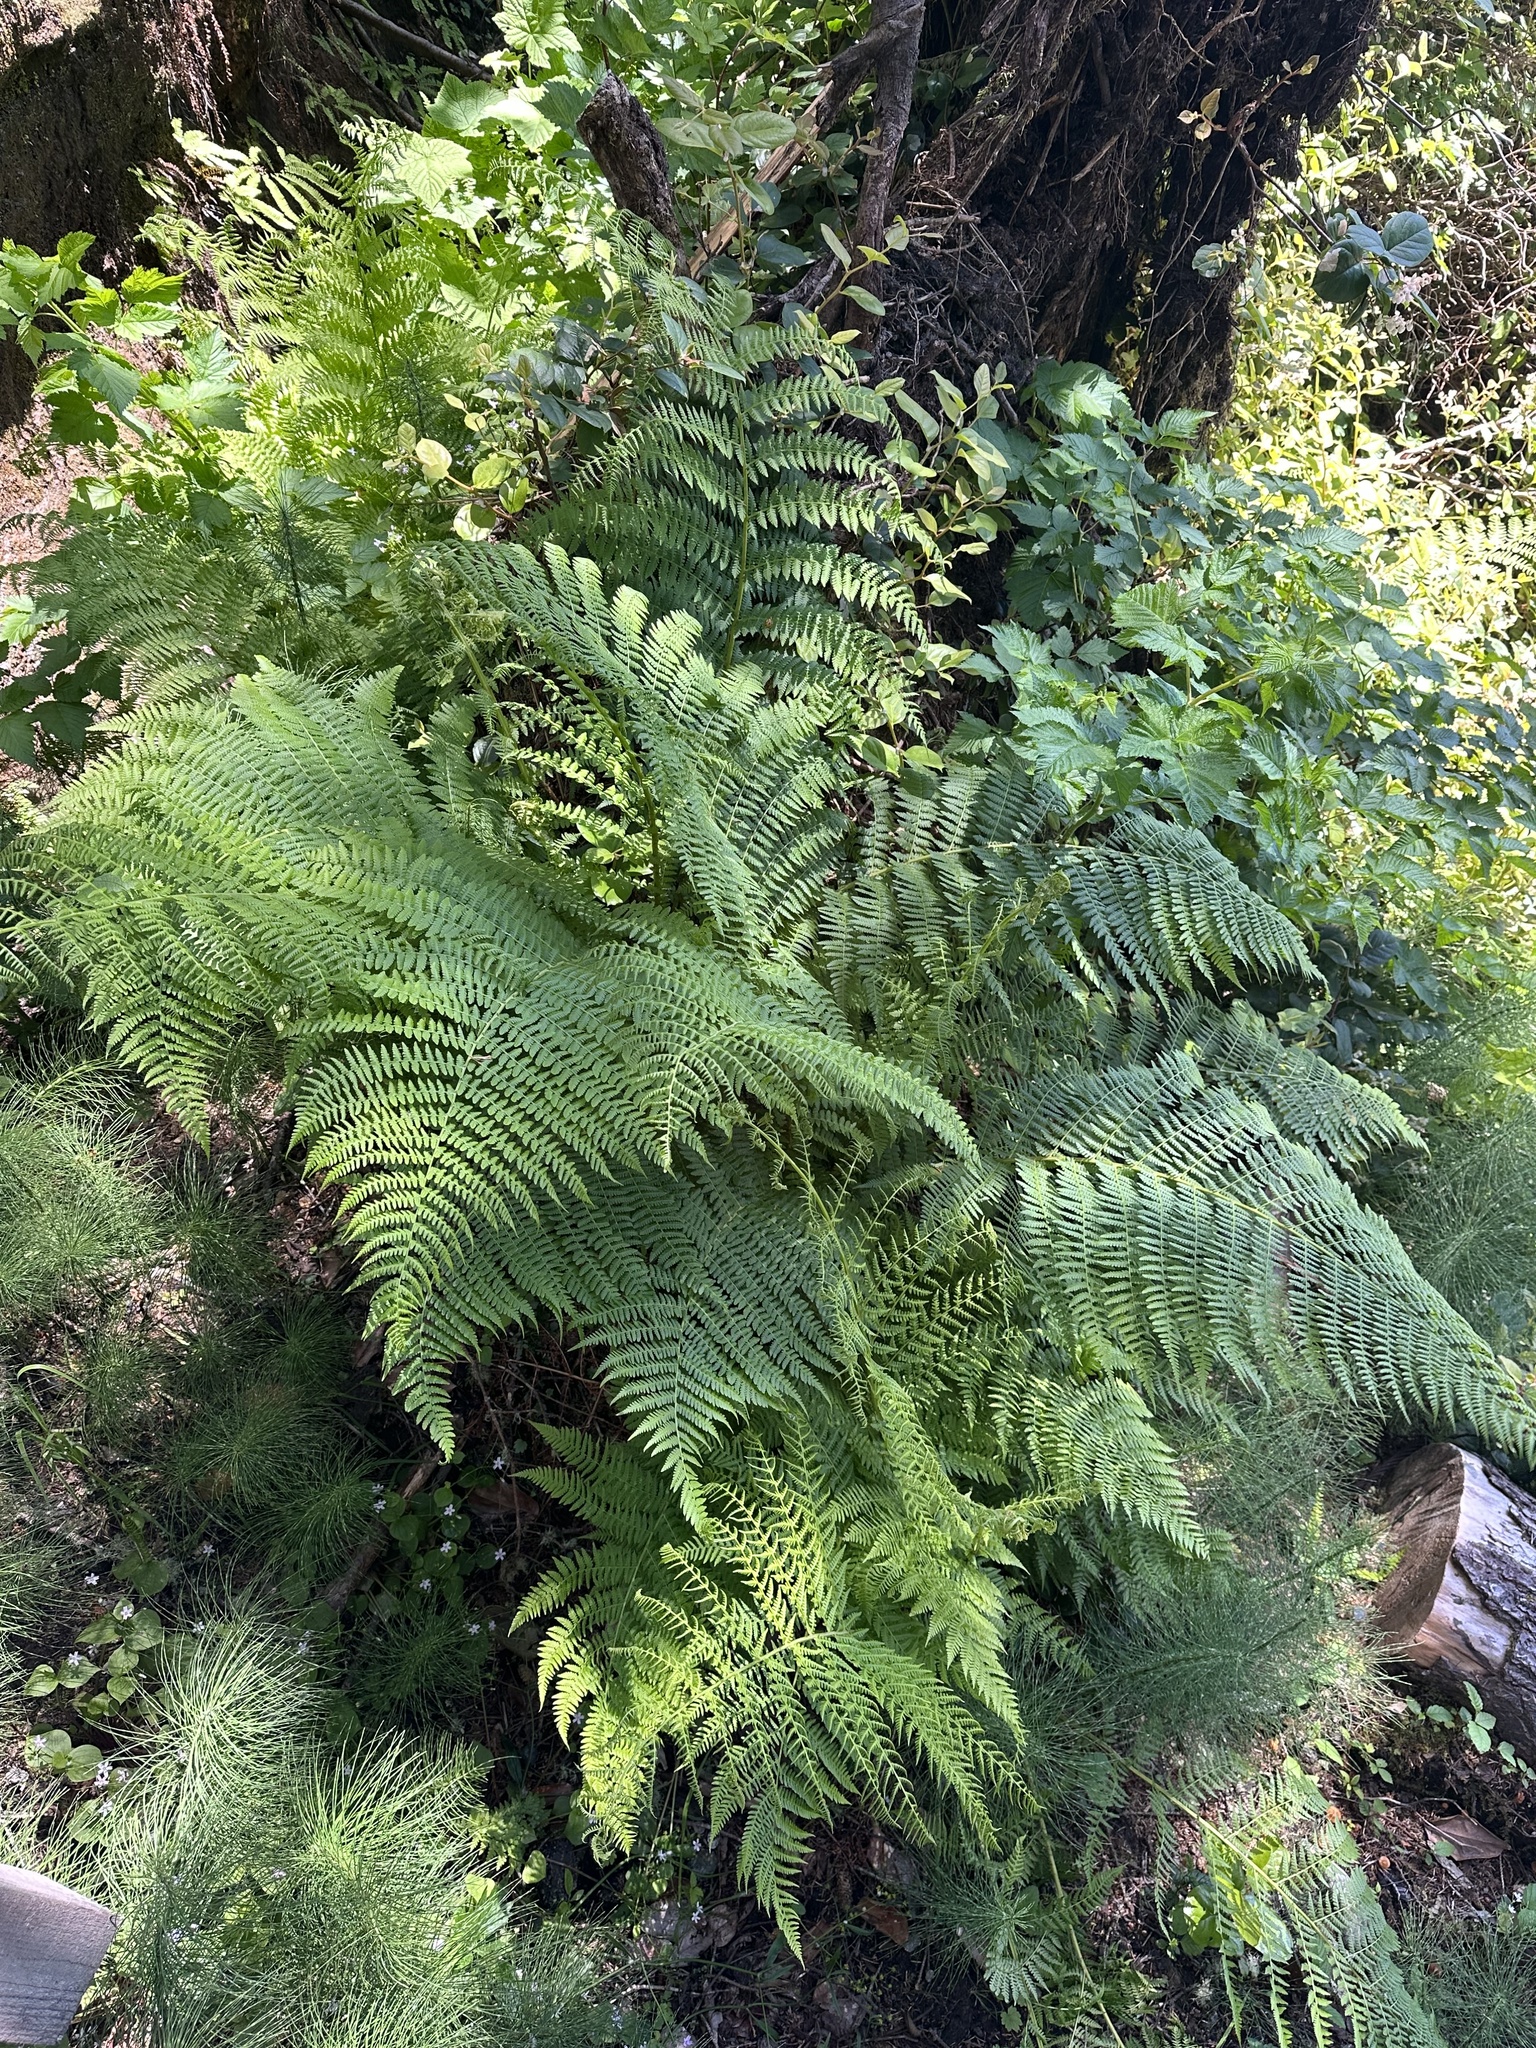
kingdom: Plantae
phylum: Tracheophyta
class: Polypodiopsida
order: Polypodiales
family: Athyriaceae
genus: Athyrium
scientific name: Athyrium filix-femina
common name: Lady fern
